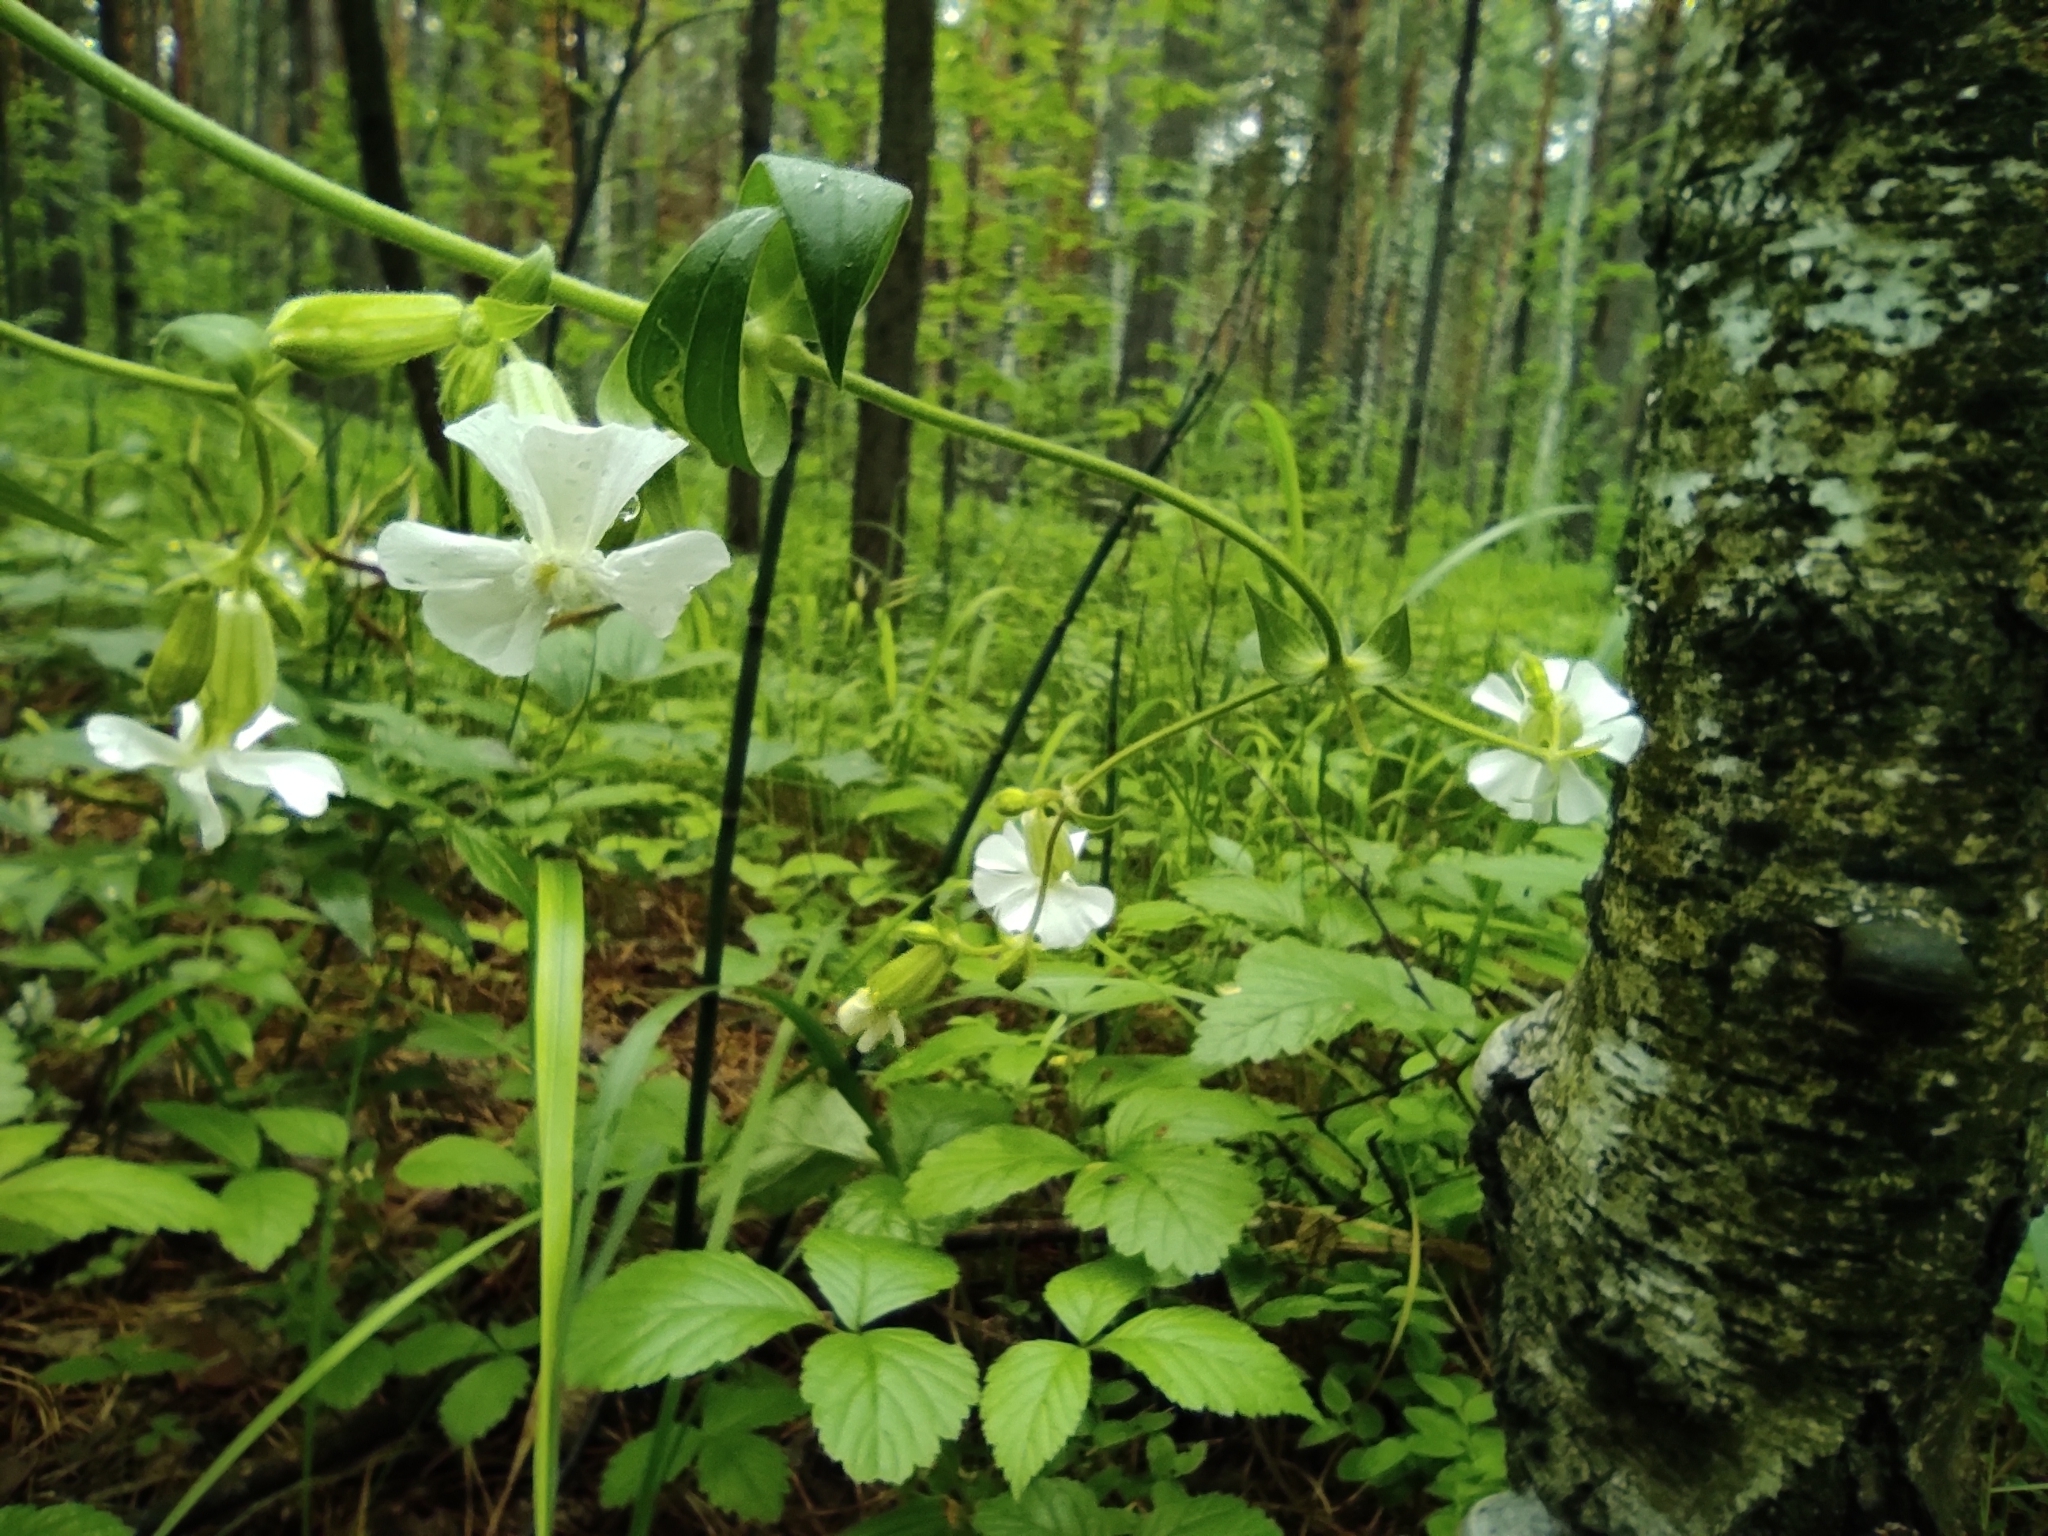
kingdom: Plantae
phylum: Tracheophyta
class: Magnoliopsida
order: Caryophyllales
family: Caryophyllaceae
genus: Silene
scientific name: Silene latifolia
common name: White campion
